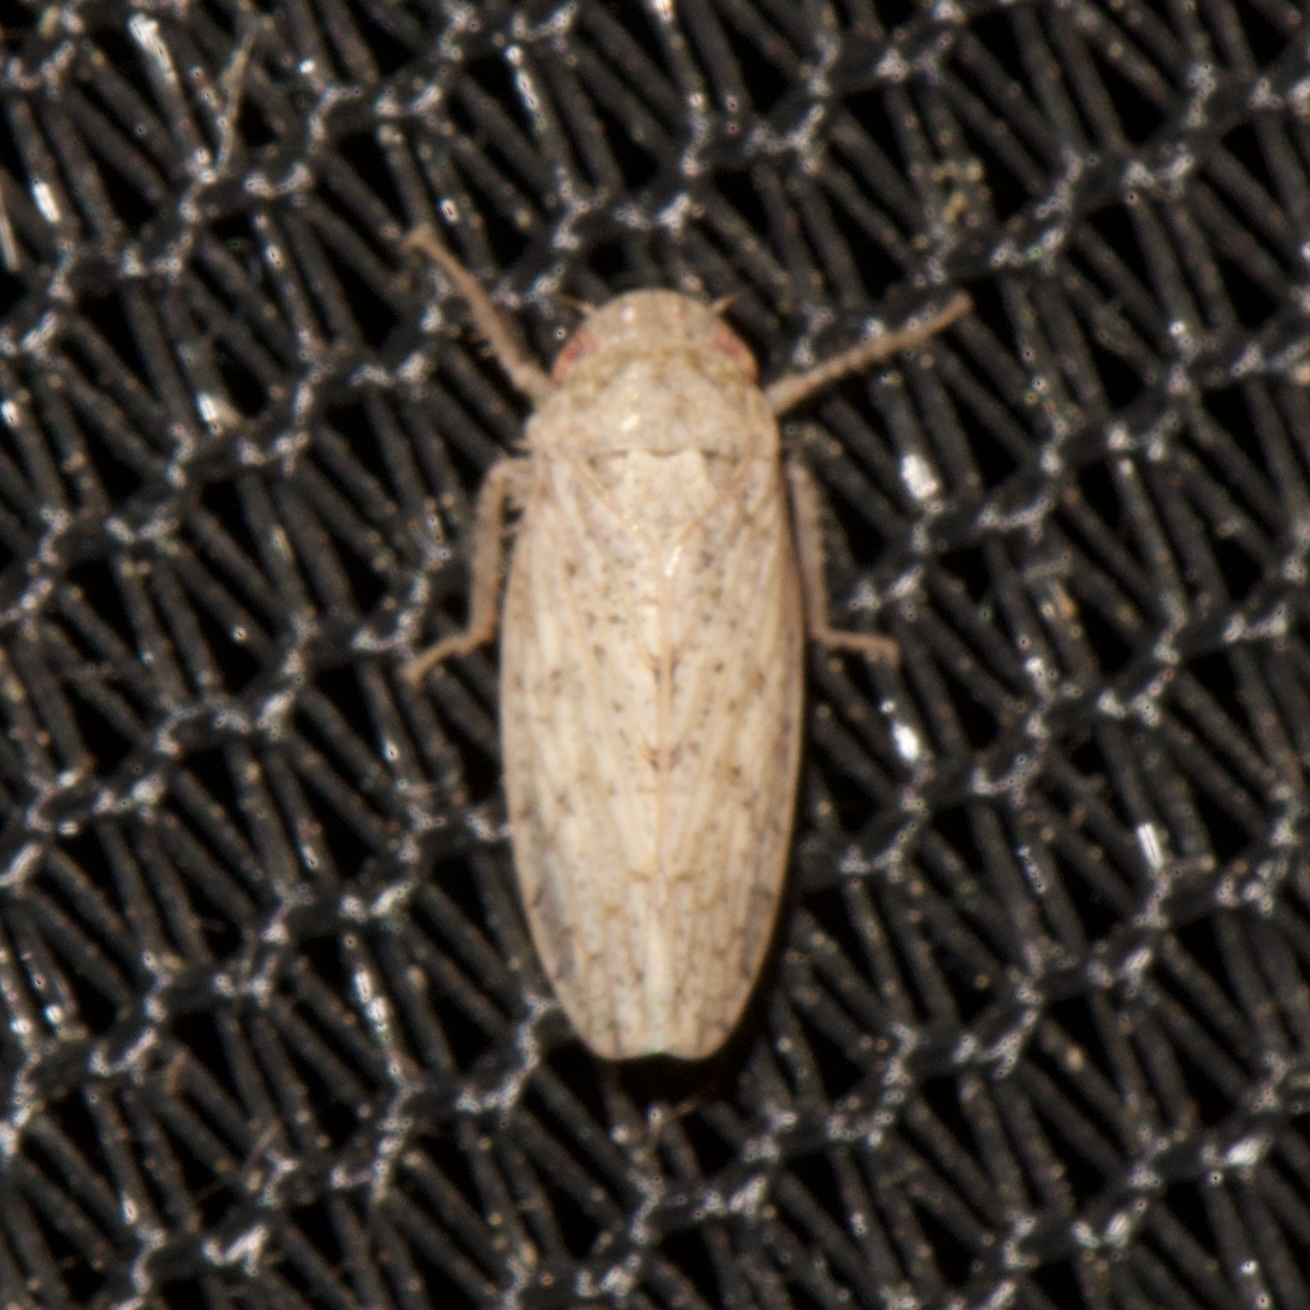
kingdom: Animalia
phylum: Arthropoda
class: Insecta
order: Hemiptera
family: Cicadellidae
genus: Curtara
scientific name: Curtara insularis
